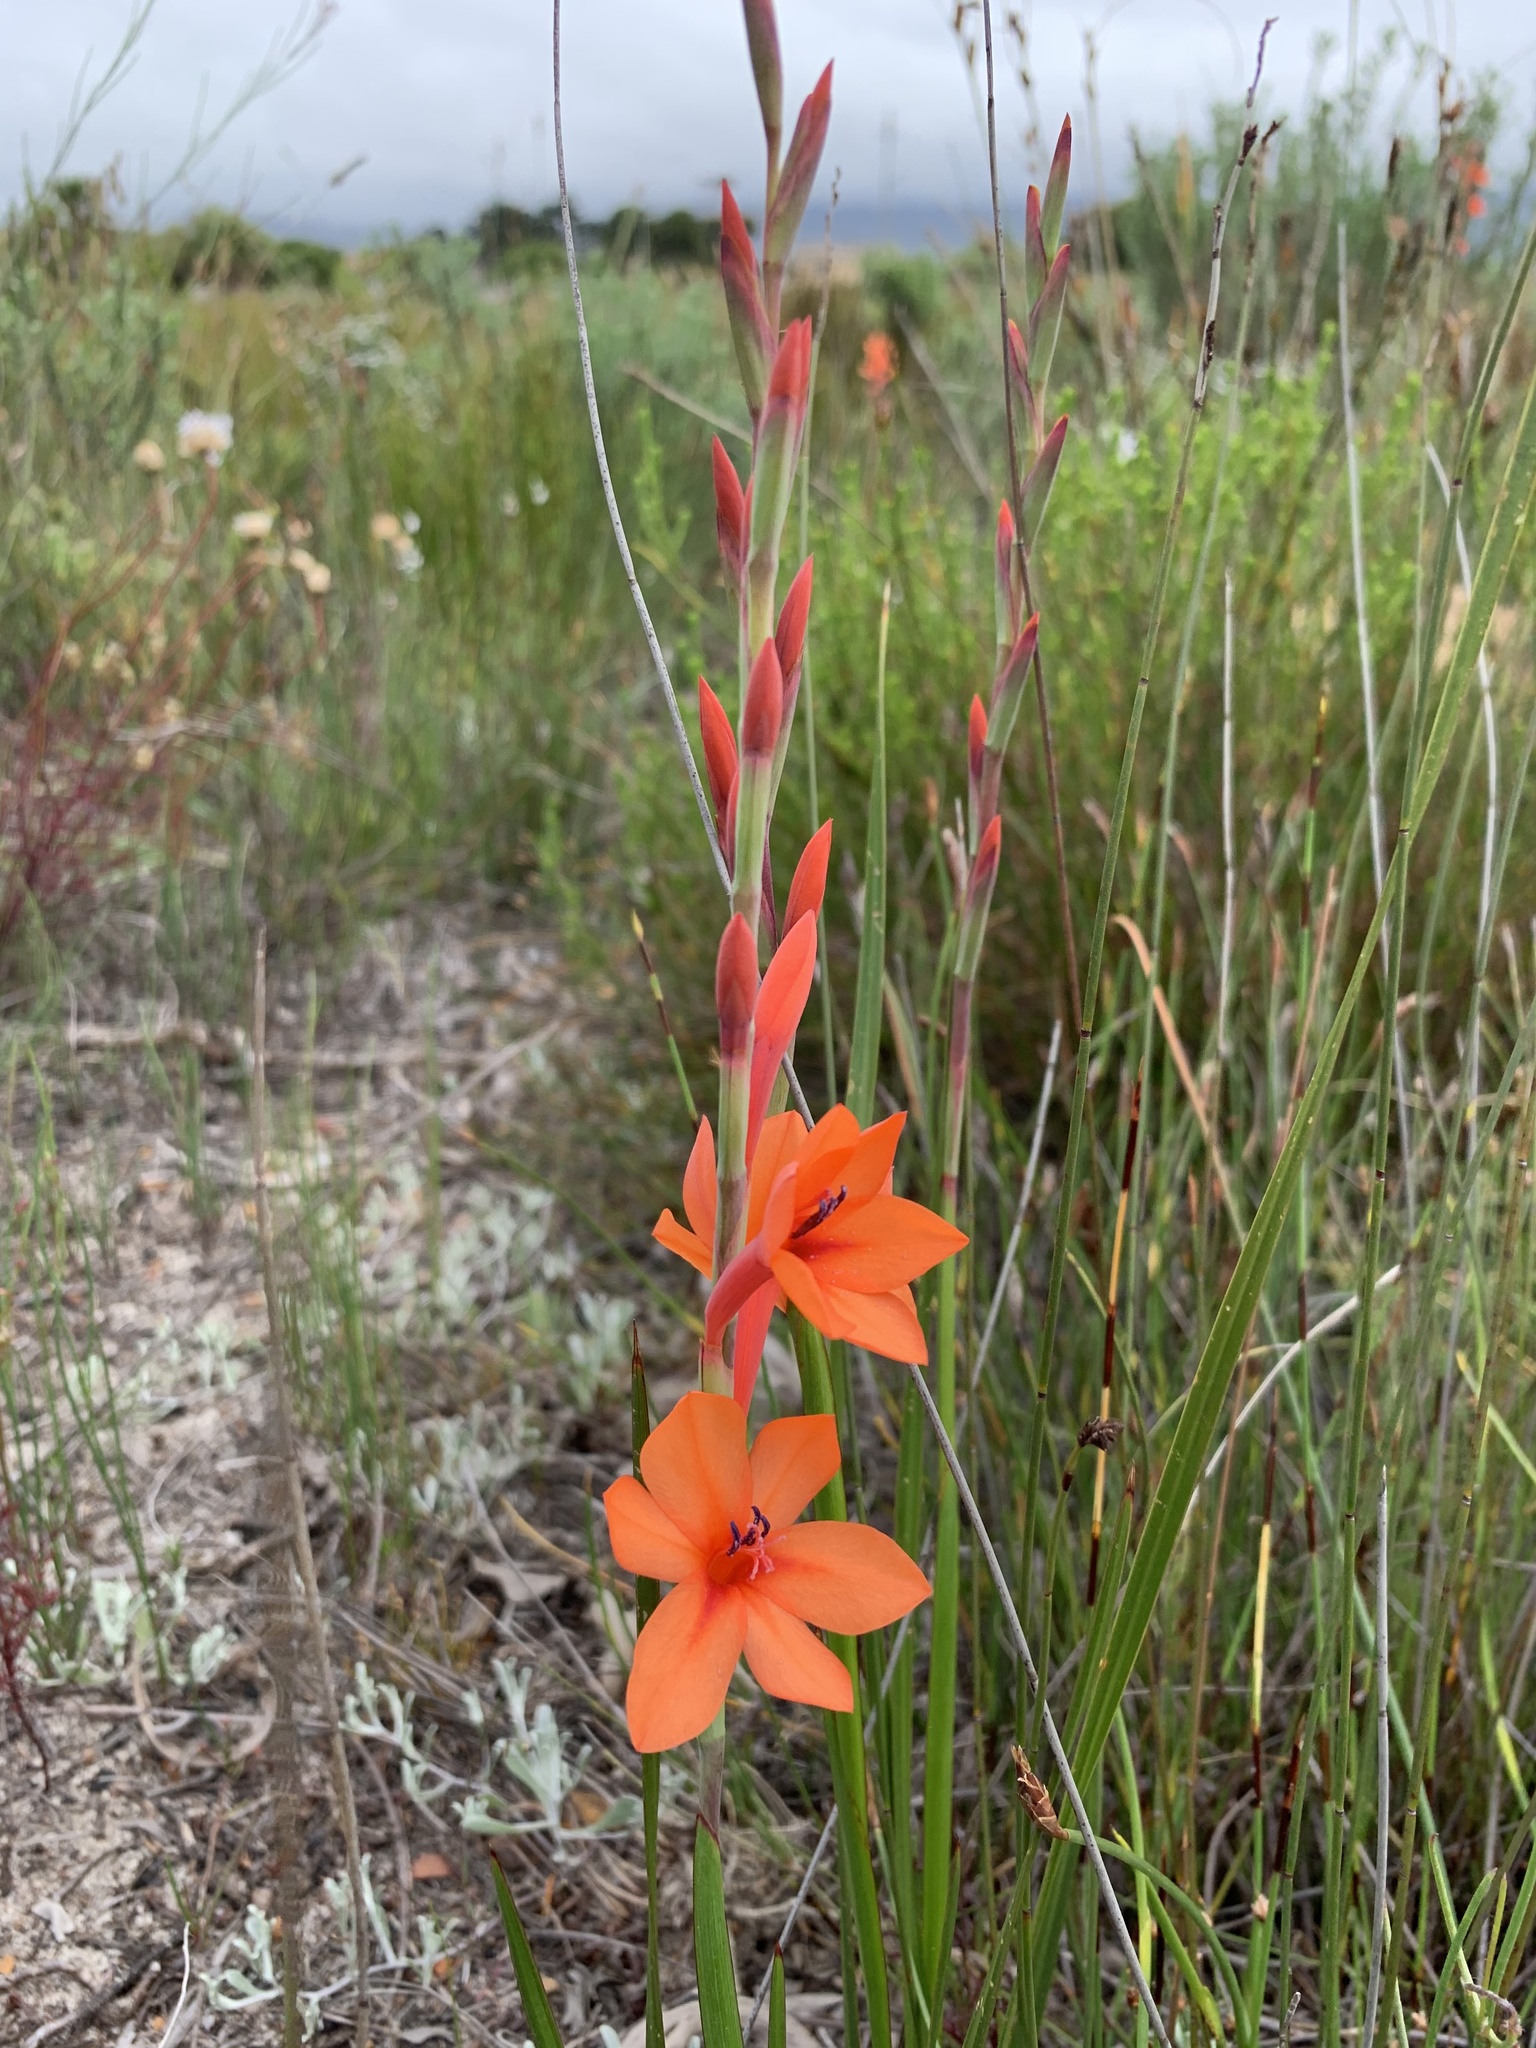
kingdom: Plantae
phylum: Tracheophyta
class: Liliopsida
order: Asparagales
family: Iridaceae
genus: Watsonia
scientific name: Watsonia stenosiphon
